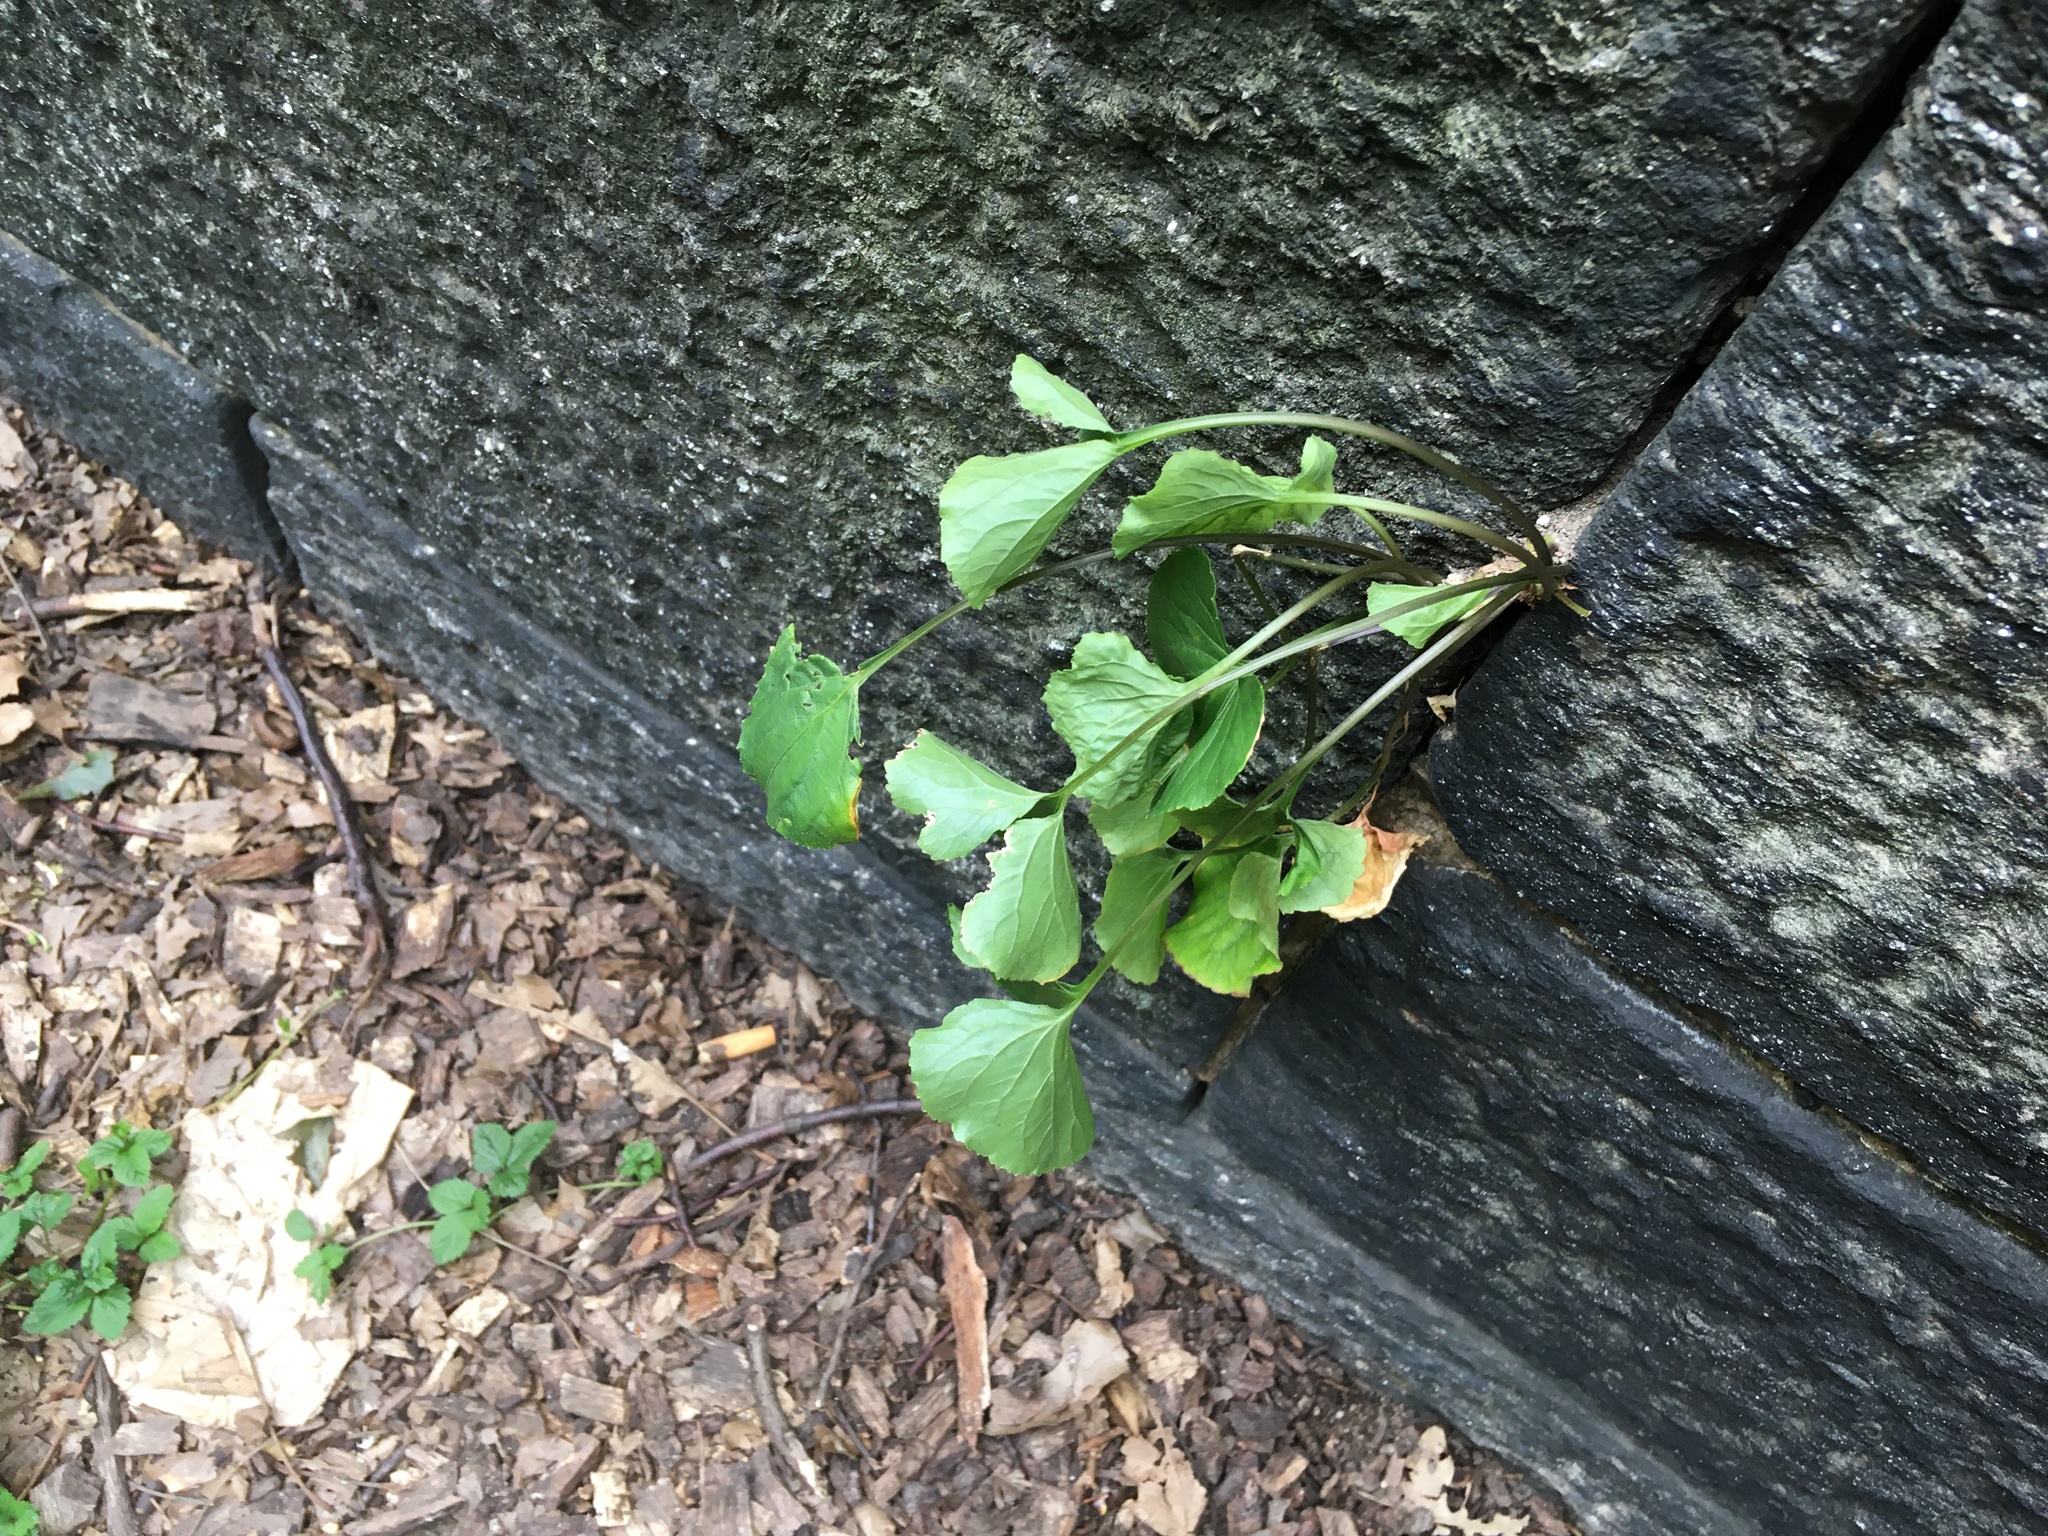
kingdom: Plantae
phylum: Tracheophyta
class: Magnoliopsida
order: Malpighiales
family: Violaceae
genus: Viola
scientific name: Viola sororia
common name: Dooryard violet
